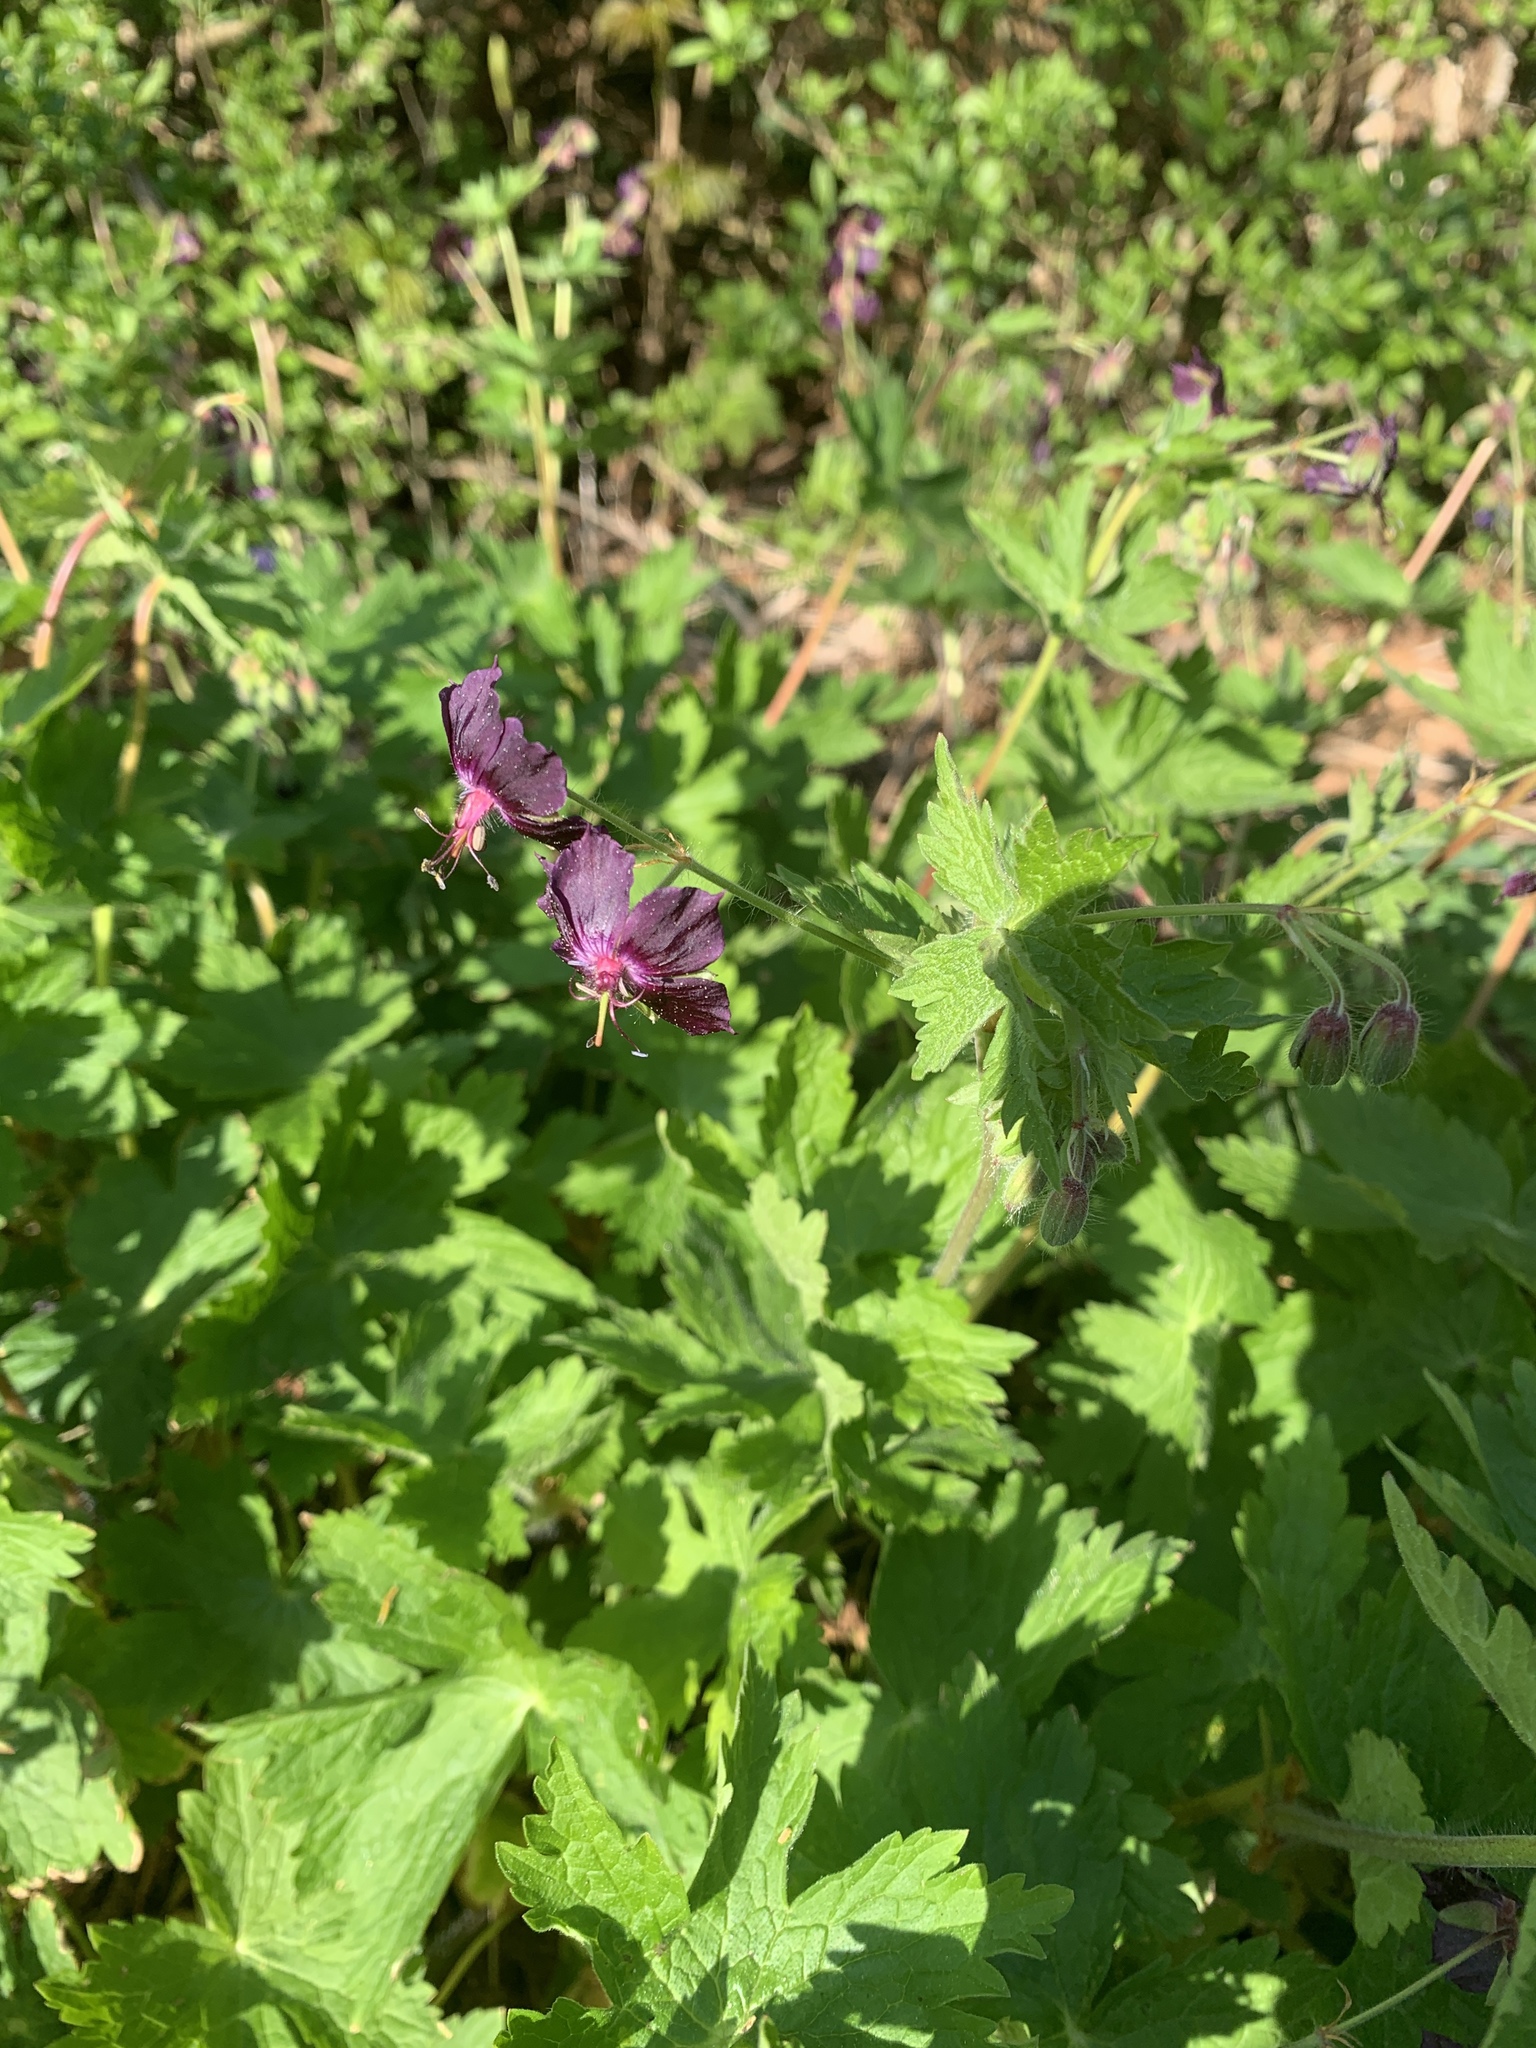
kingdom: Plantae
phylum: Tracheophyta
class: Magnoliopsida
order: Geraniales
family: Geraniaceae
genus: Geranium
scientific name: Geranium phaeum
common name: Dusky crane's-bill
